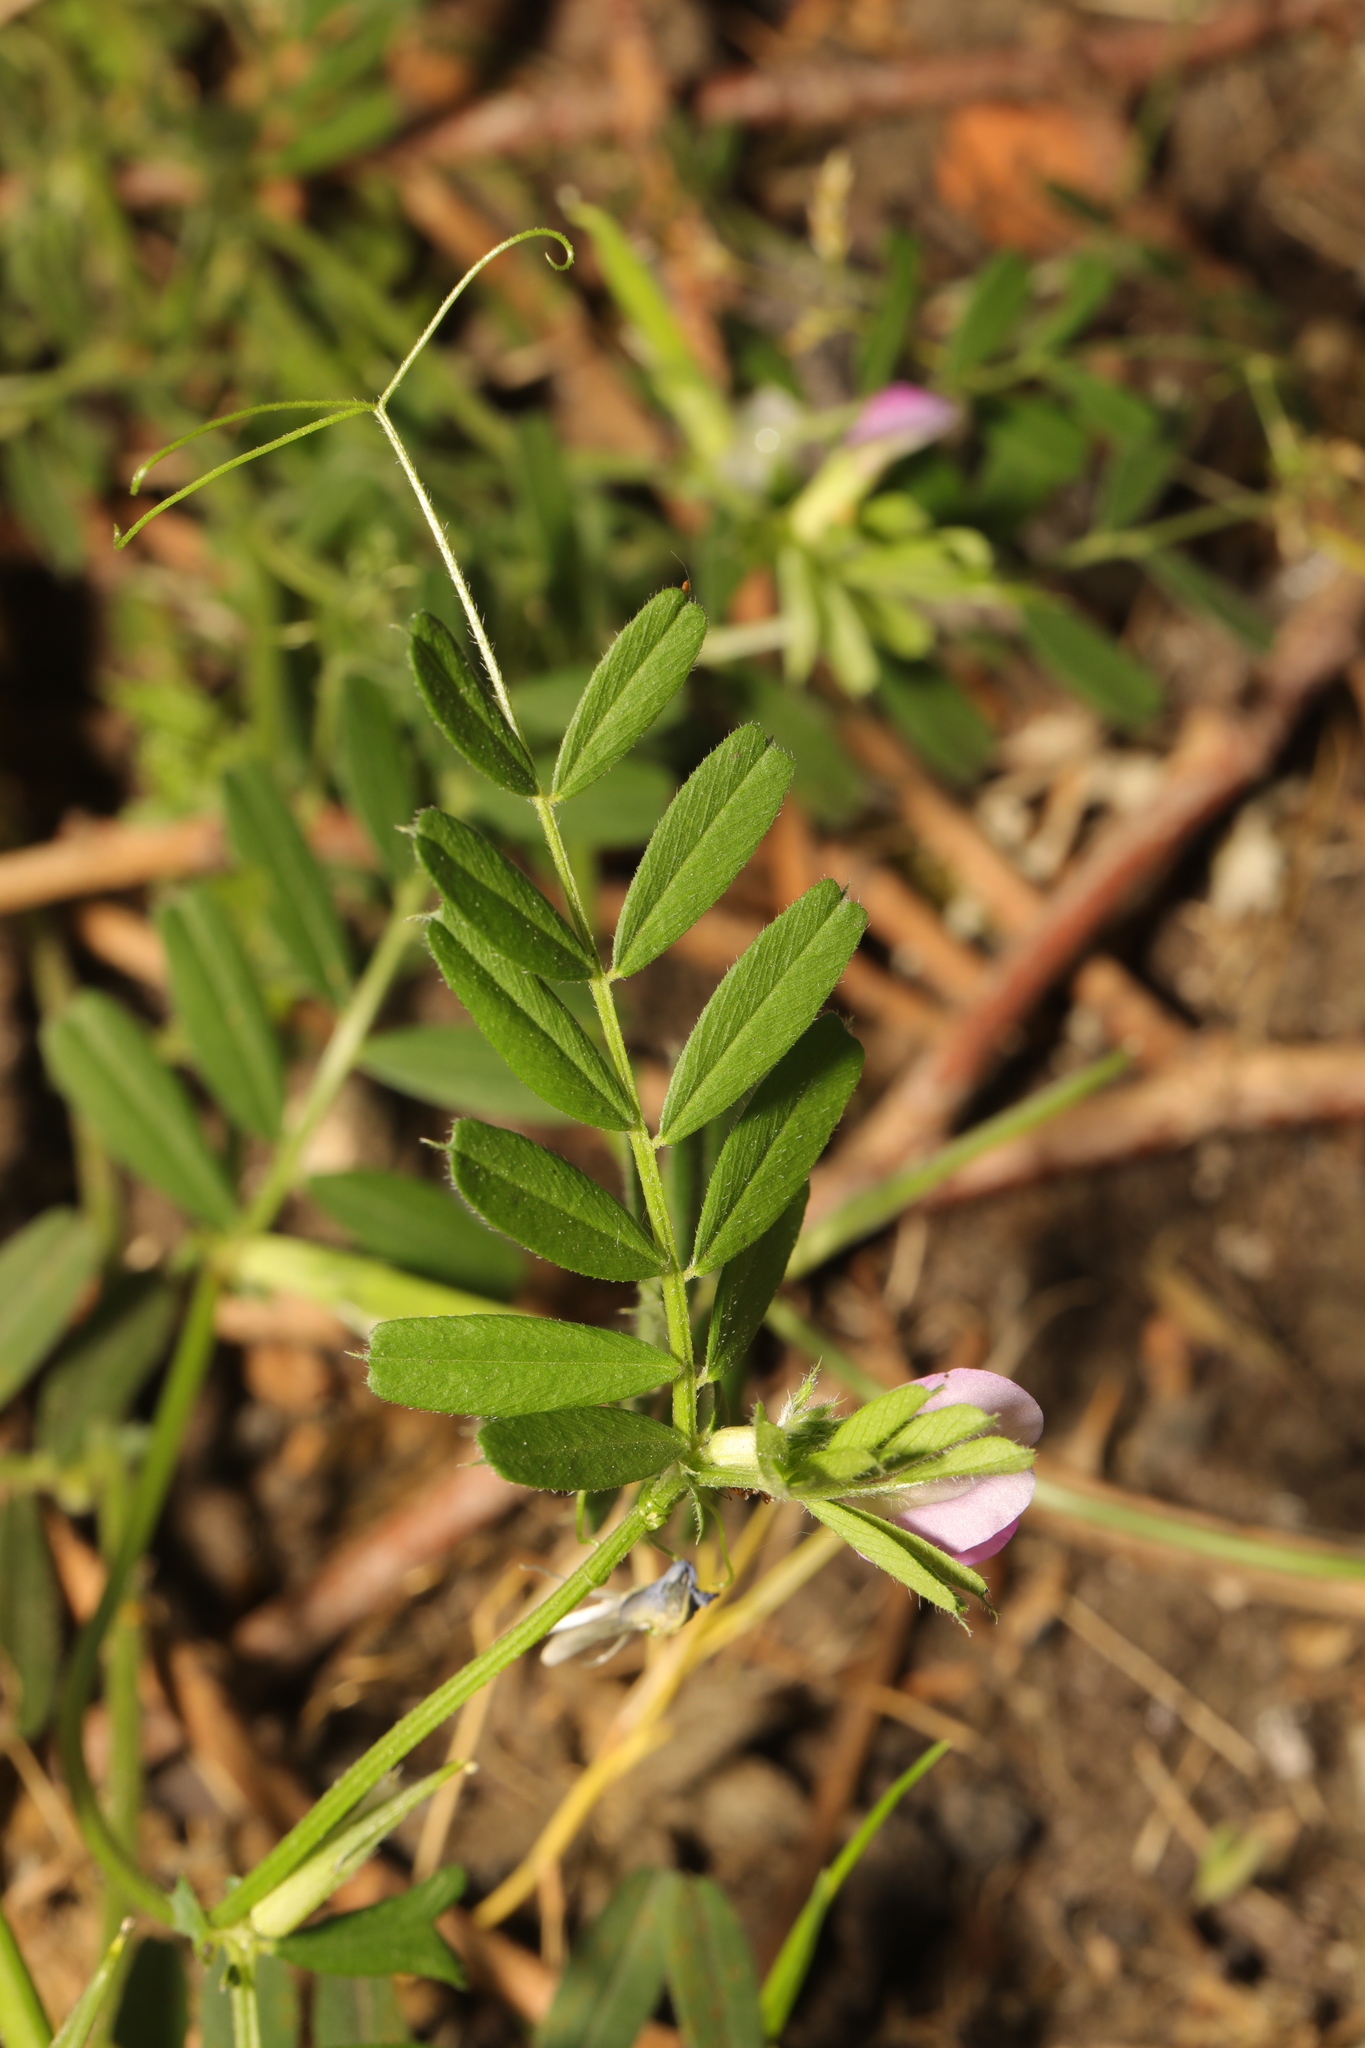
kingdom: Plantae
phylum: Tracheophyta
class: Magnoliopsida
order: Fabales
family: Fabaceae
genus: Vicia
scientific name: Vicia sativa
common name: Garden vetch
